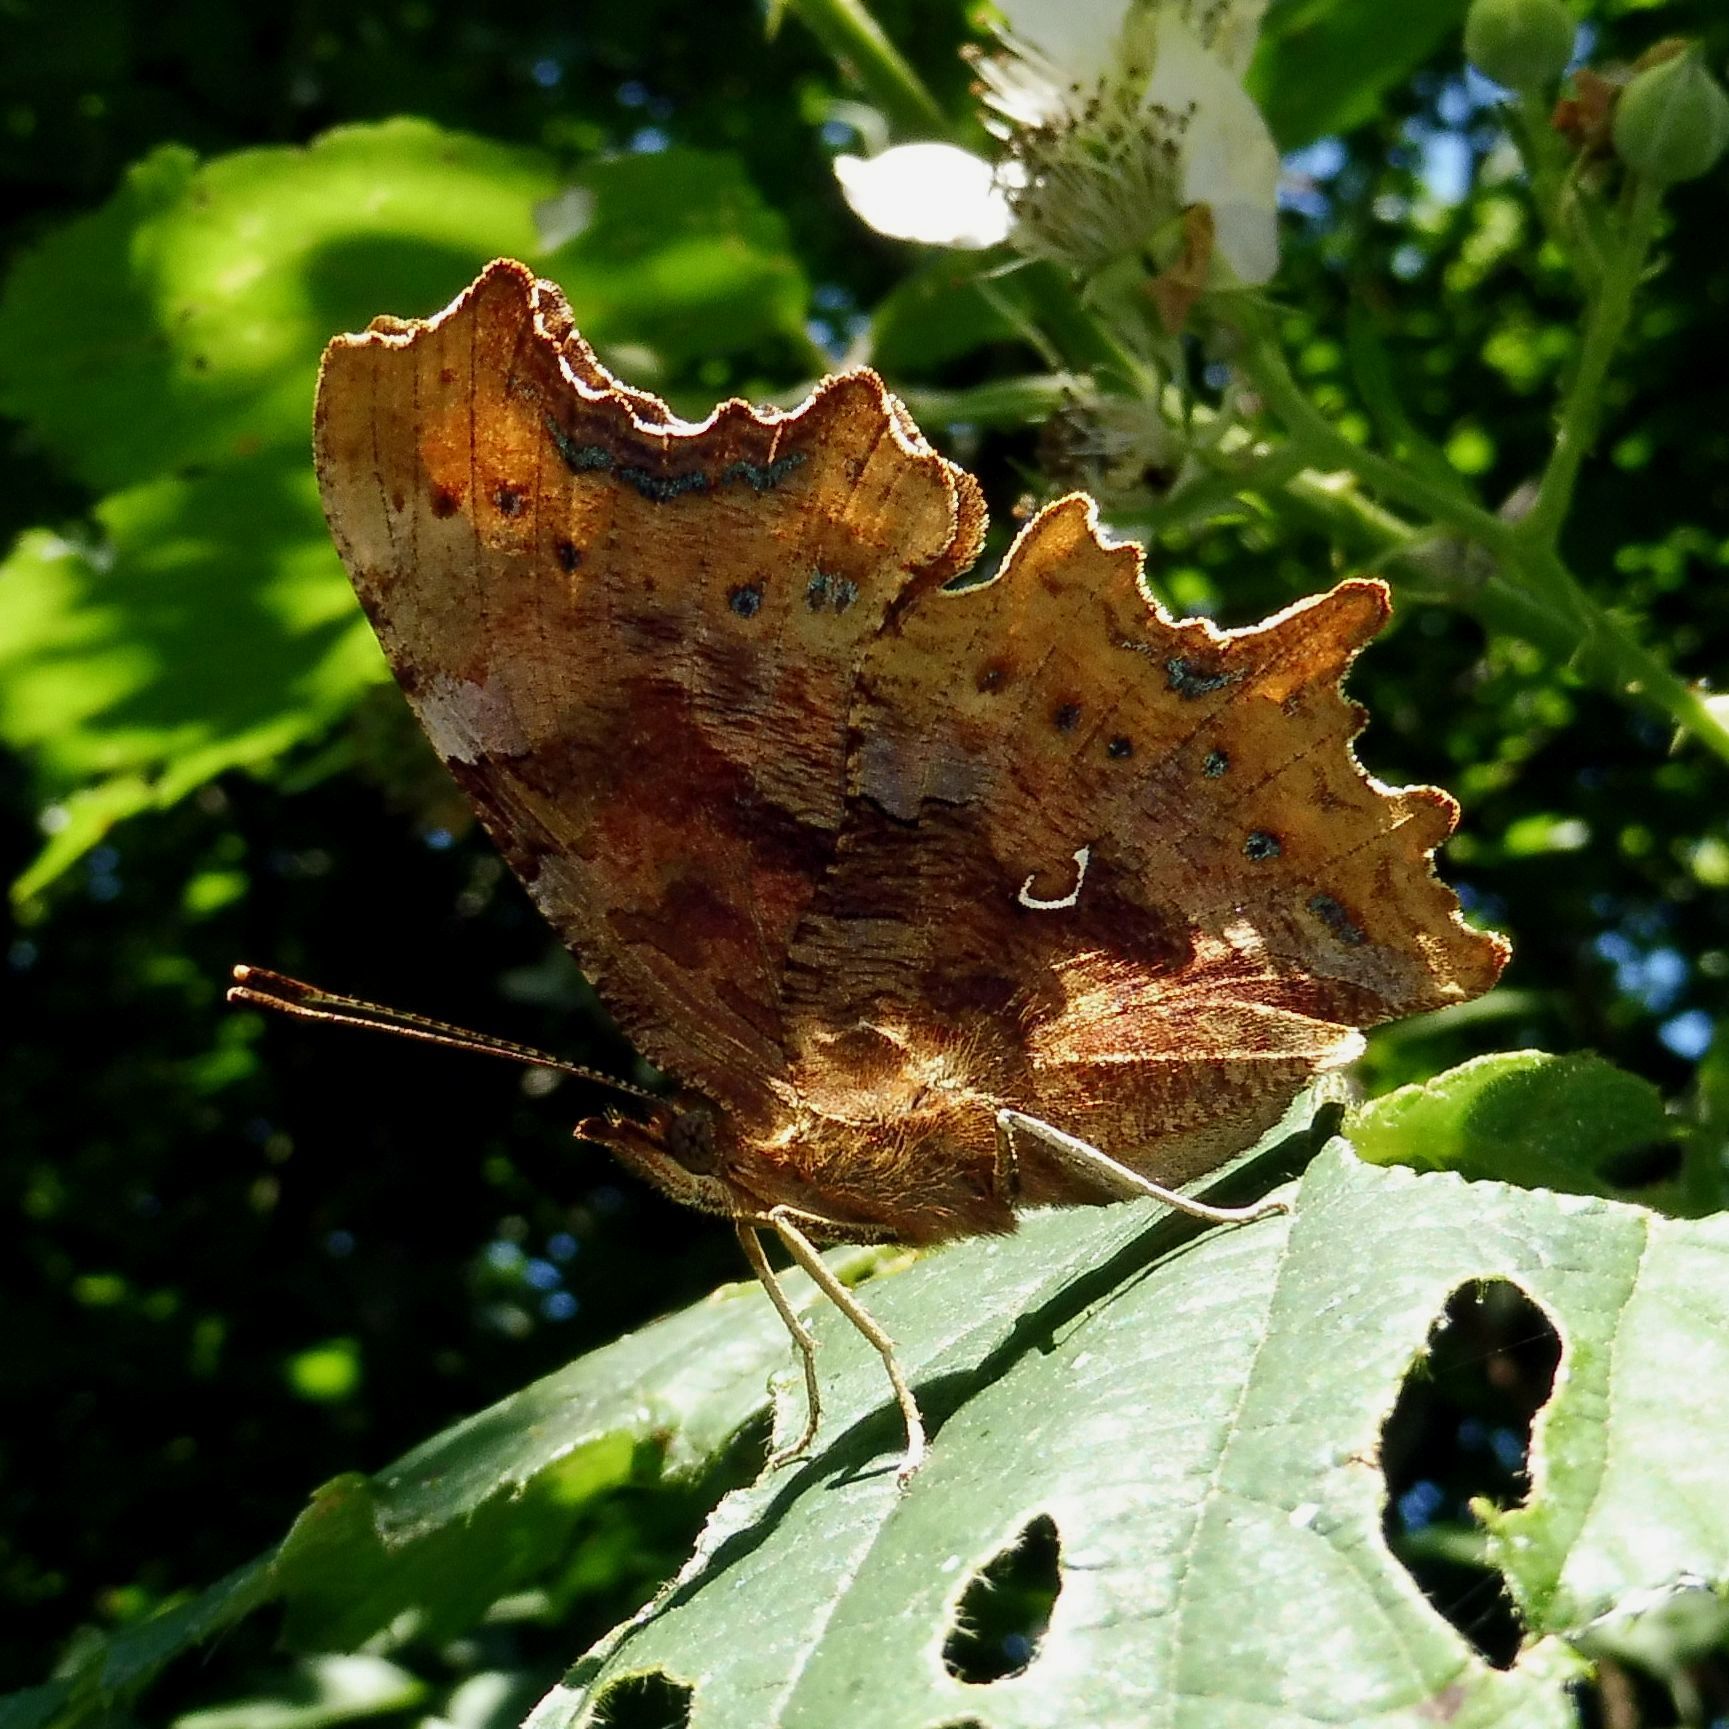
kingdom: Animalia
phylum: Arthropoda
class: Insecta
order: Lepidoptera
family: Nymphalidae
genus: Polygonia
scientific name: Polygonia c-album
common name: Comma
